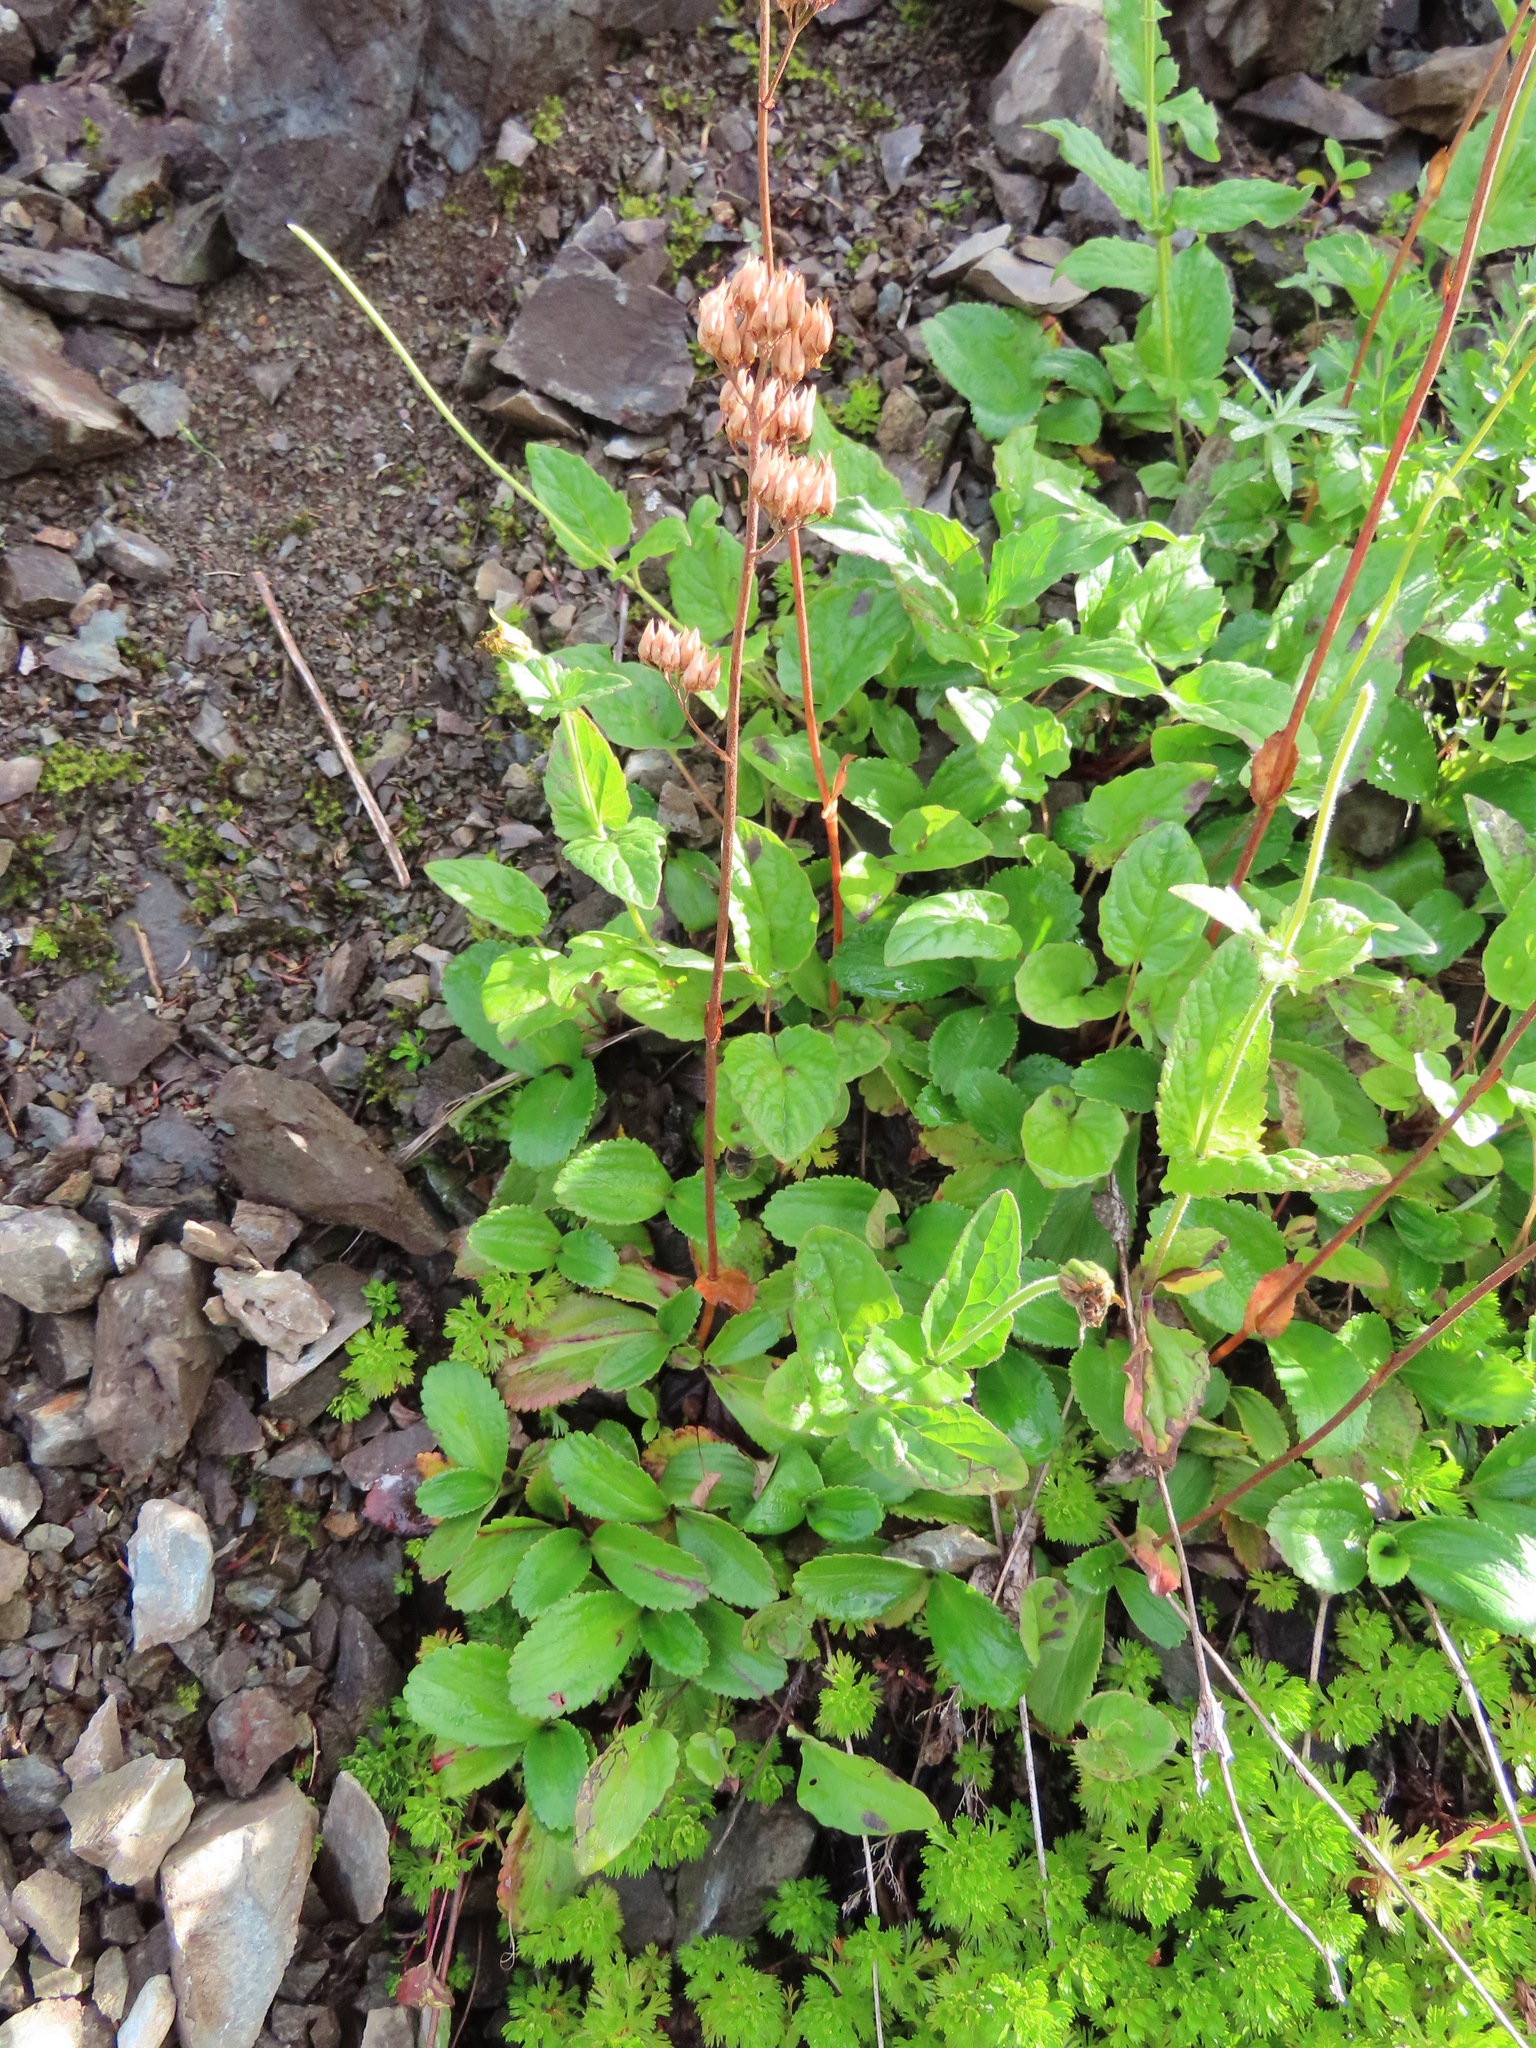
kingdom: Plantae
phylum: Tracheophyta
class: Magnoliopsida
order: Saxifragales
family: Saxifragaceae
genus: Leptarrhena
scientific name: Leptarrhena pyrolifolia
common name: Leatherleaf-saxifrage
